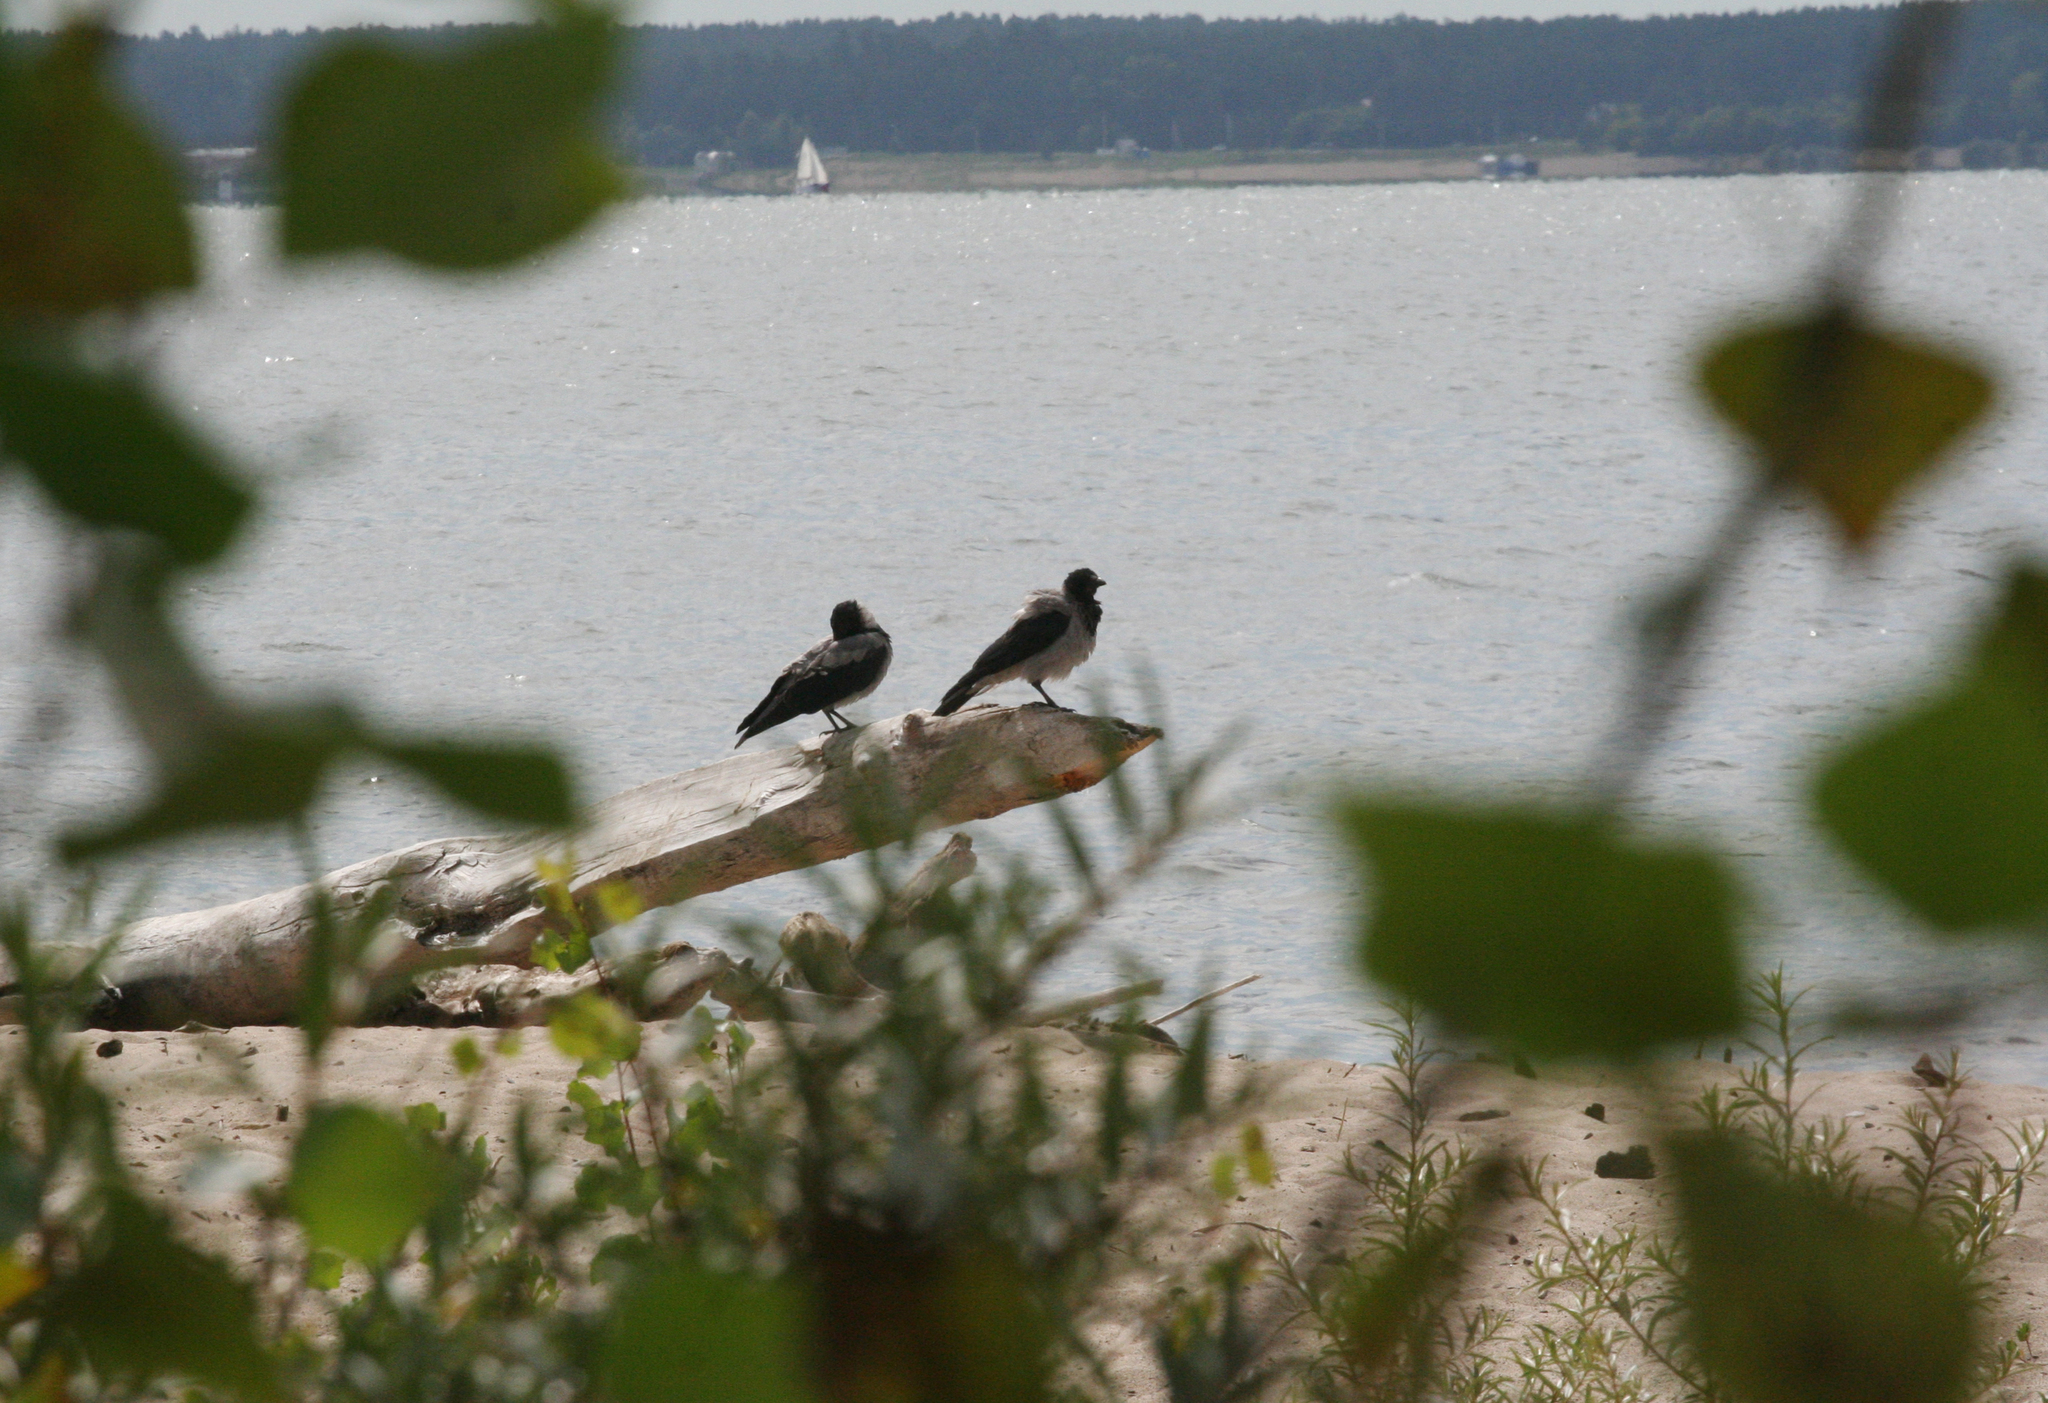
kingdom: Animalia
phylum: Chordata
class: Aves
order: Passeriformes
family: Corvidae
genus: Corvus
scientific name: Corvus cornix
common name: Hooded crow
